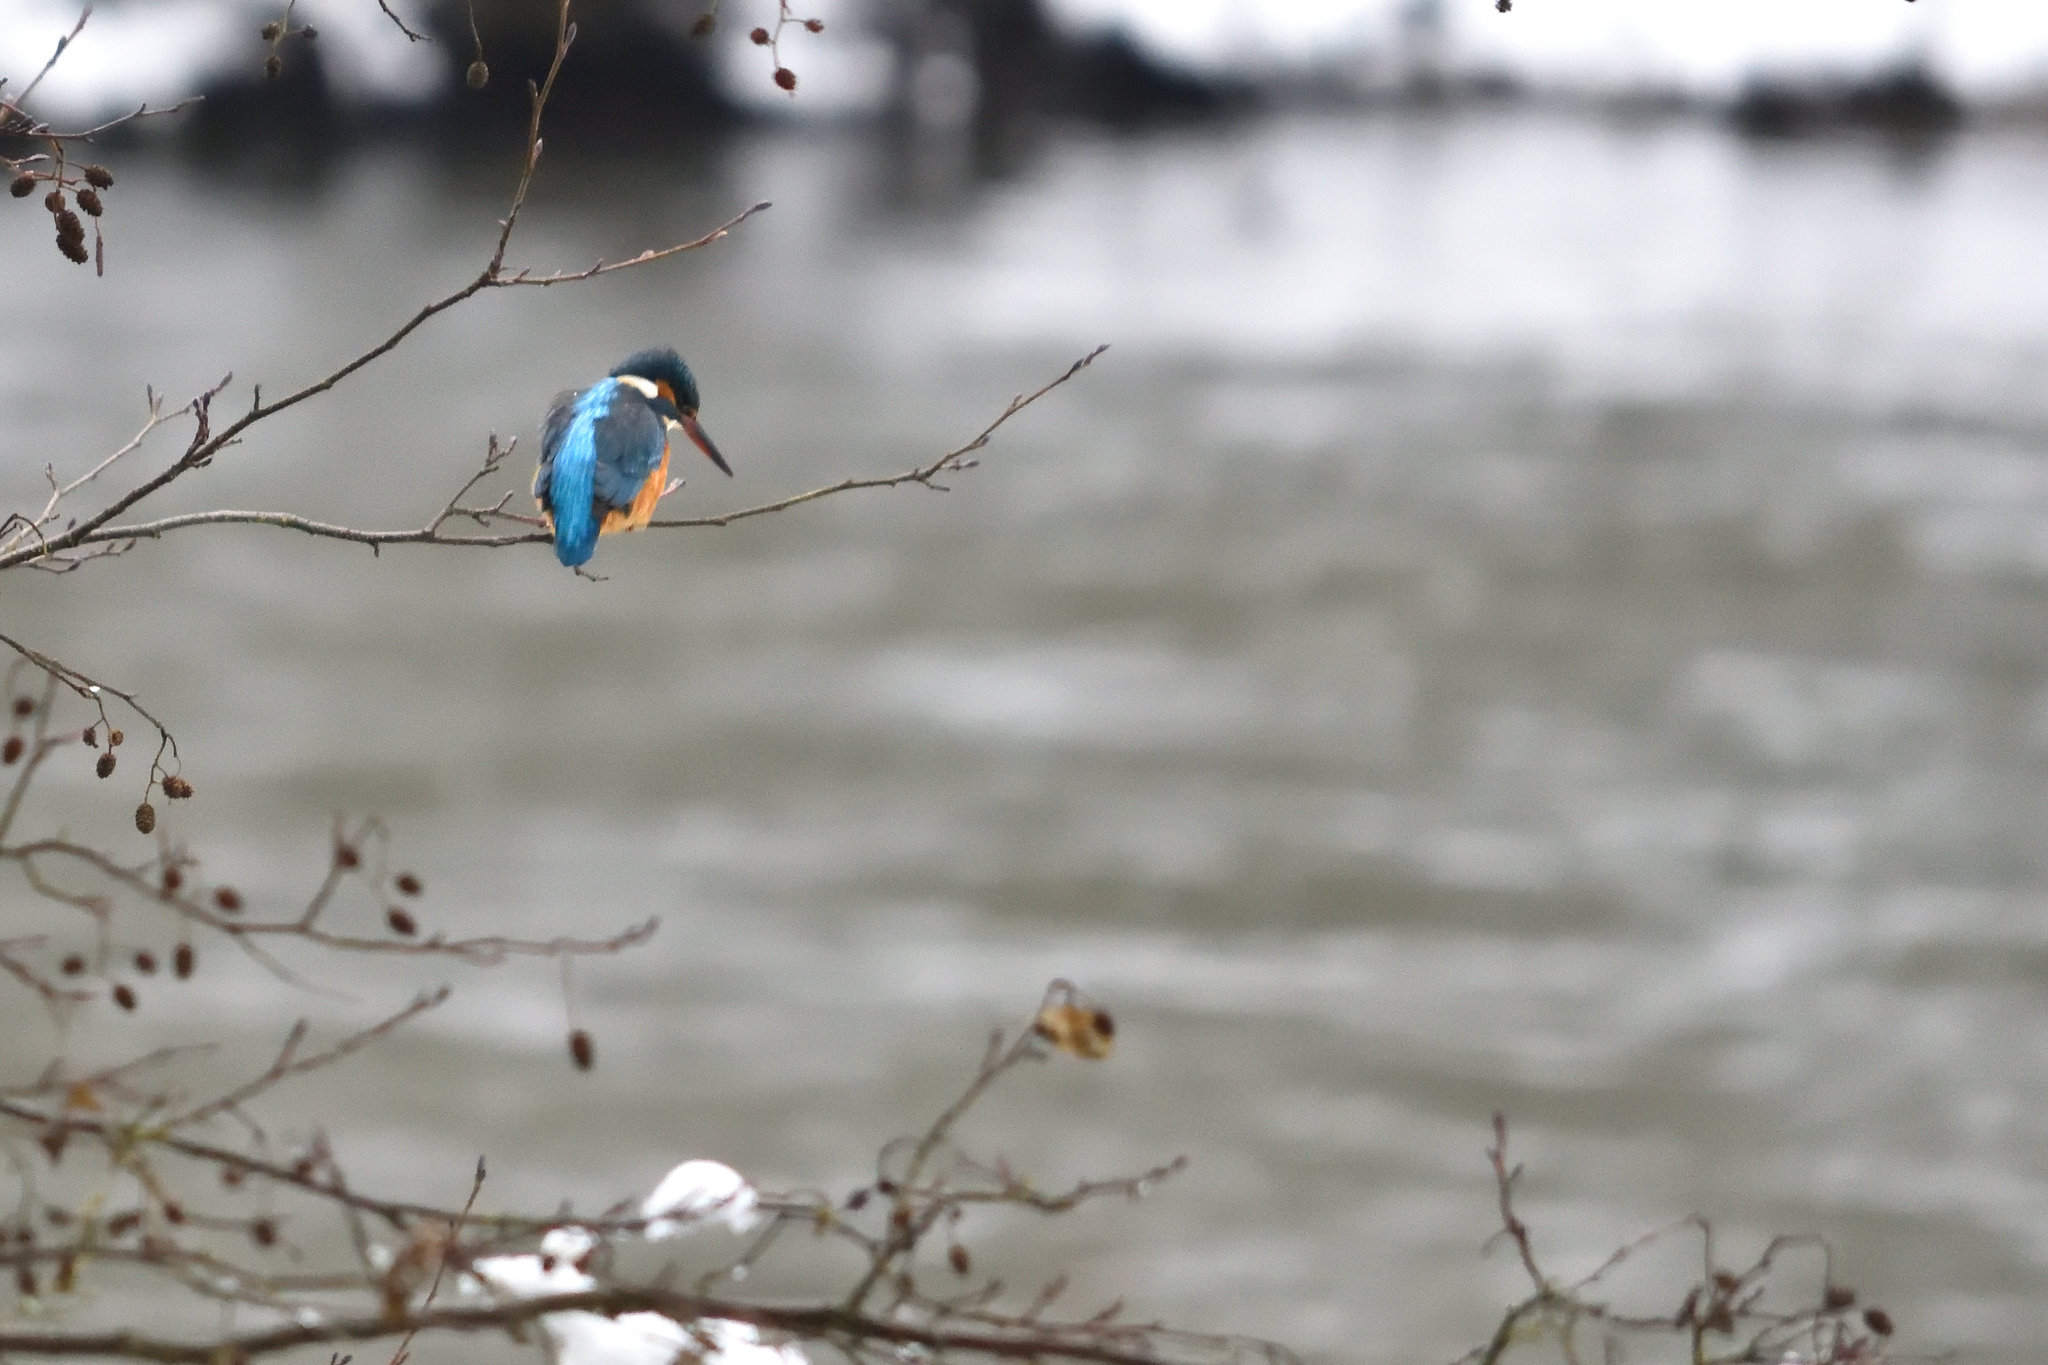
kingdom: Animalia
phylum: Chordata
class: Aves
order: Coraciiformes
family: Alcedinidae
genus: Alcedo
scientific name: Alcedo atthis
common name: Common kingfisher
